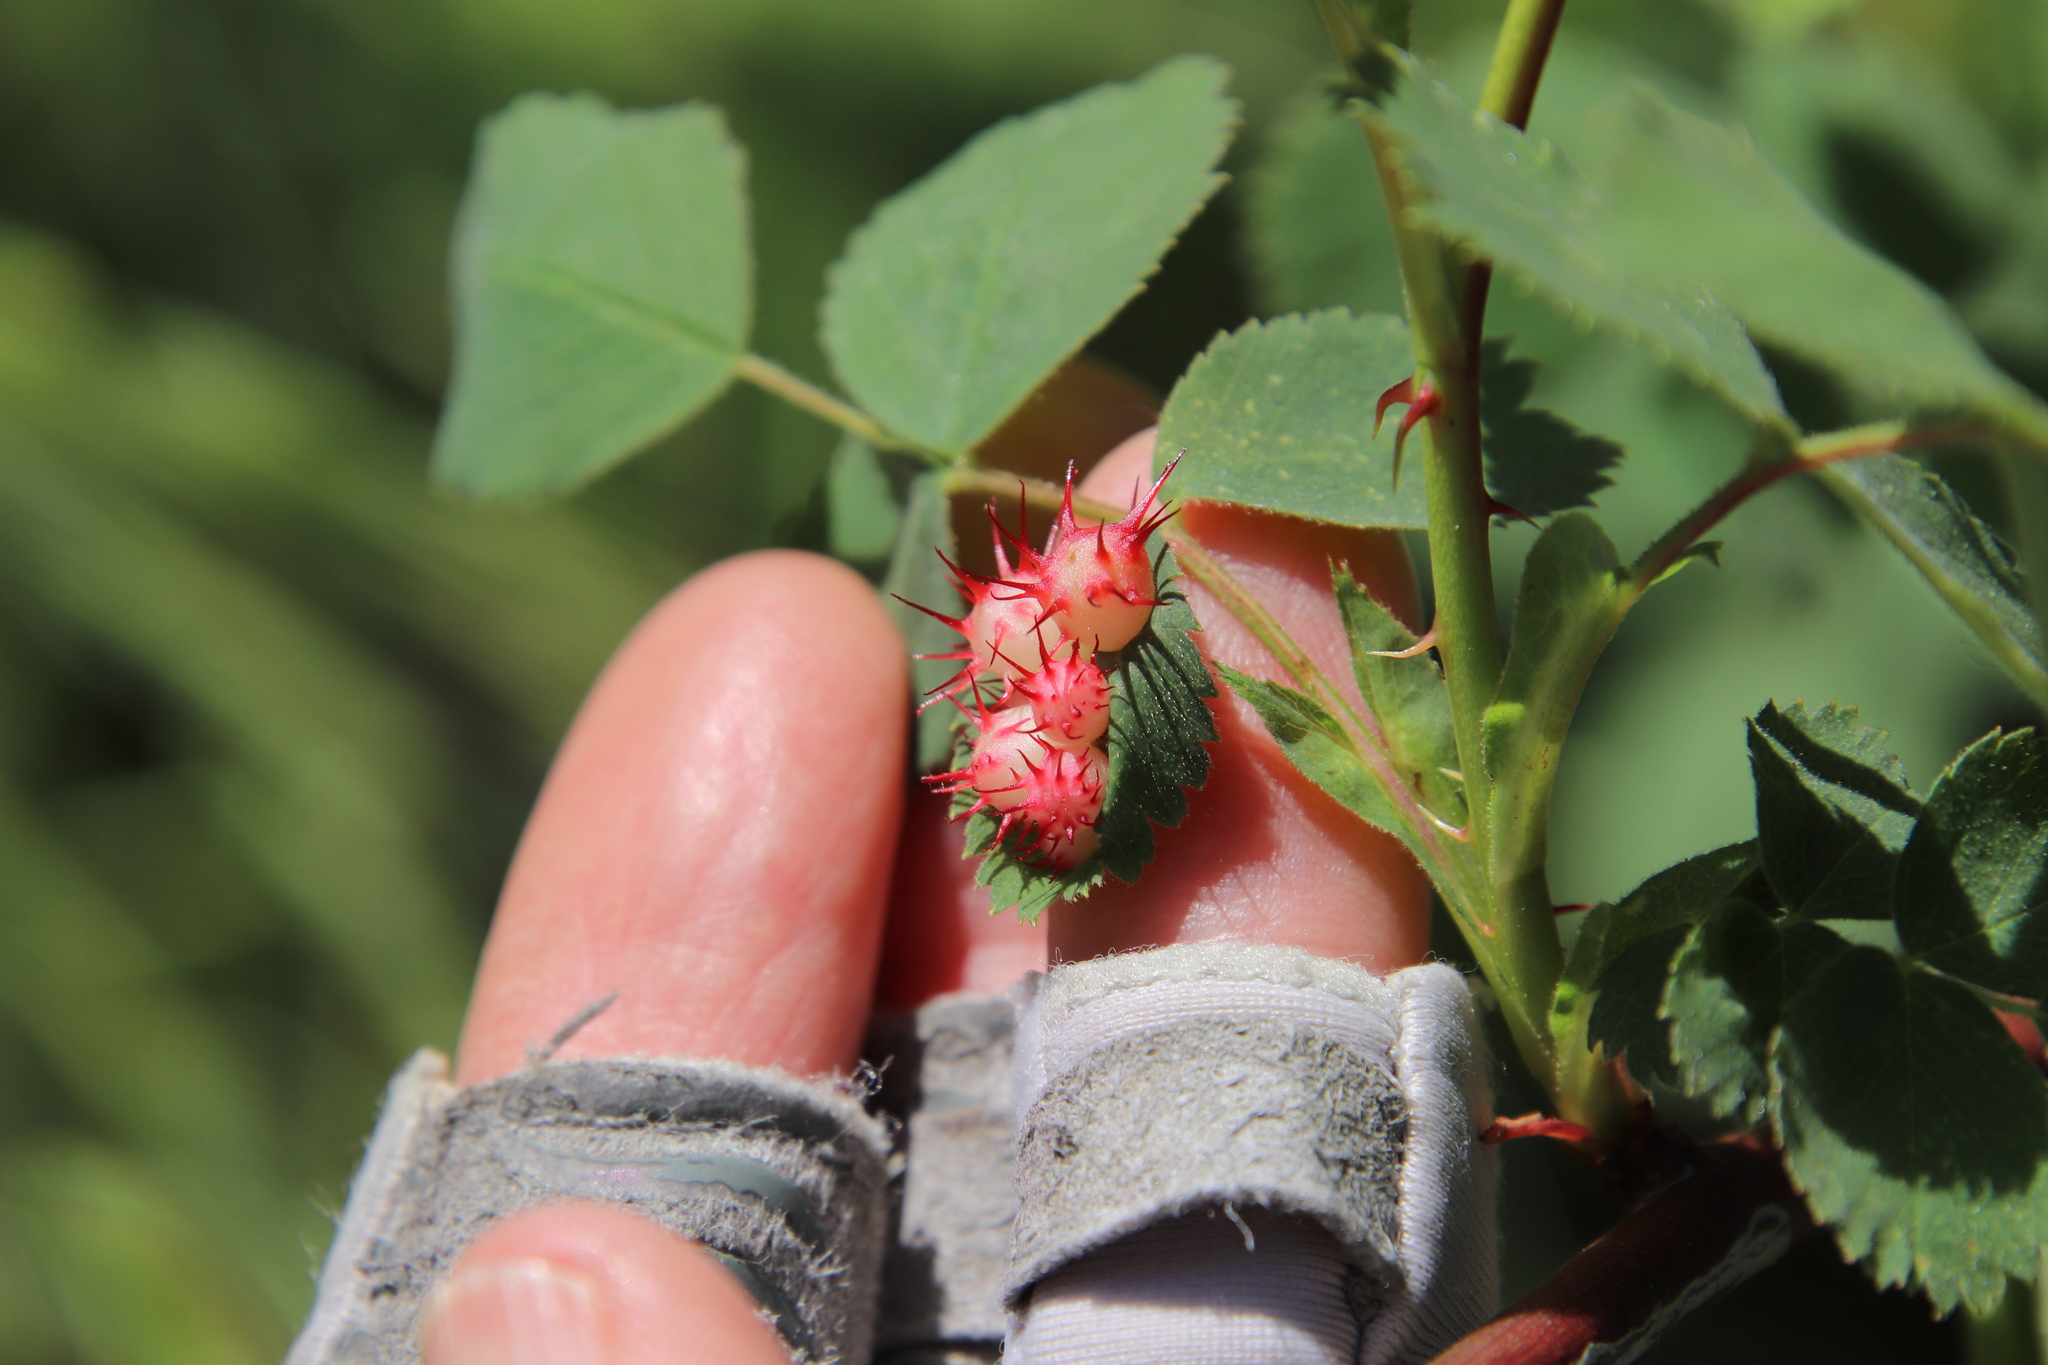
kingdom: Animalia
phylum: Arthropoda
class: Insecta
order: Hymenoptera
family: Cynipidae
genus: Diplolepis
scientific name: Diplolepis polita
